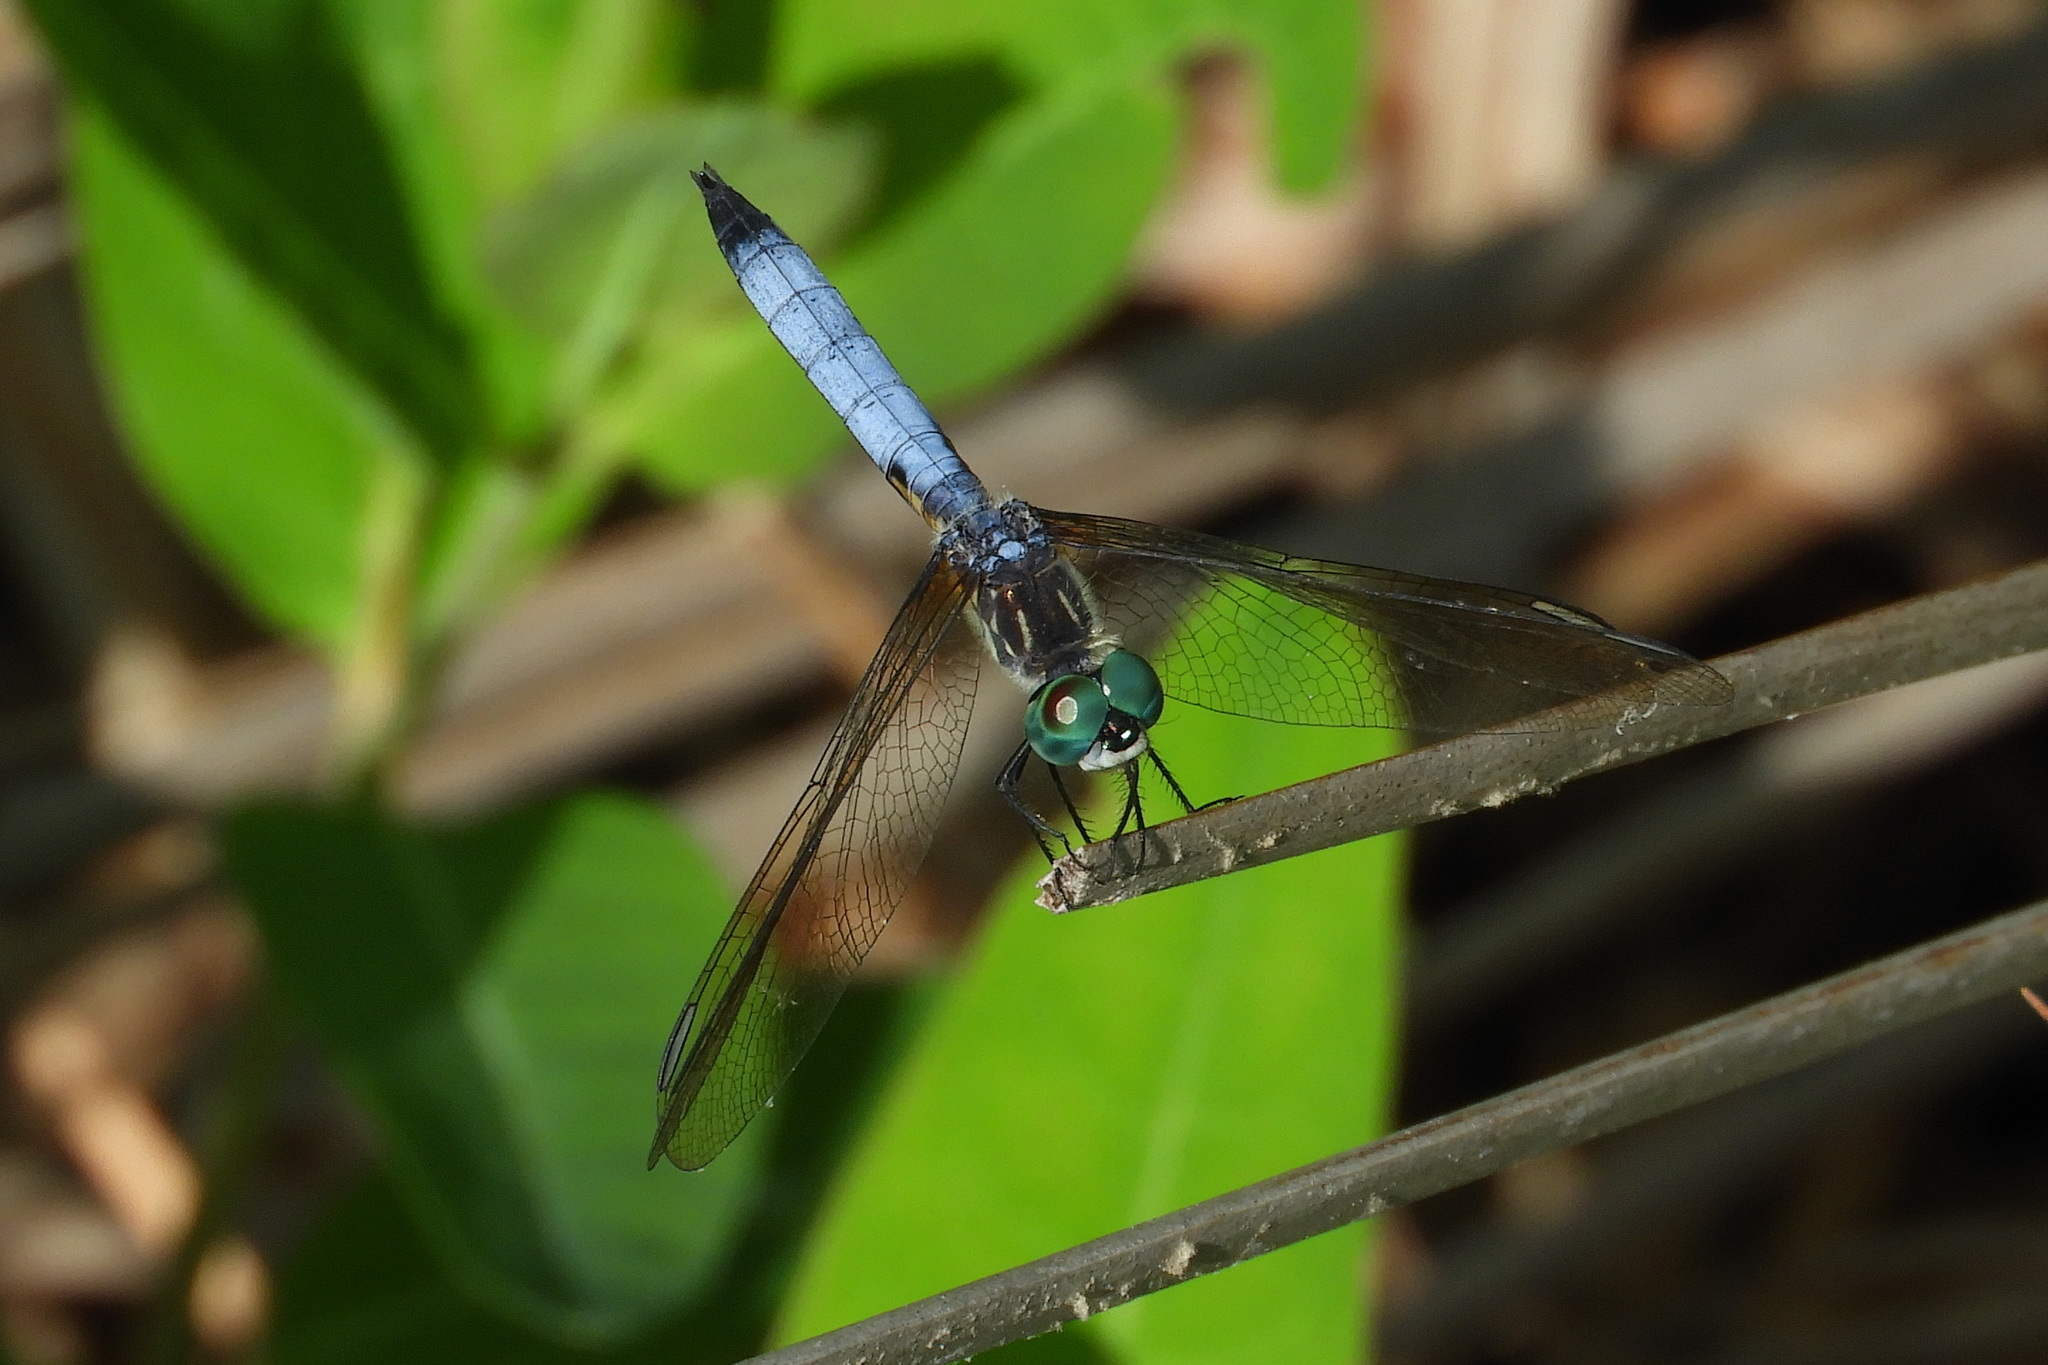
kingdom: Animalia
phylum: Arthropoda
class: Insecta
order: Odonata
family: Libellulidae
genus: Pachydiplax
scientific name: Pachydiplax longipennis
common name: Blue dasher
